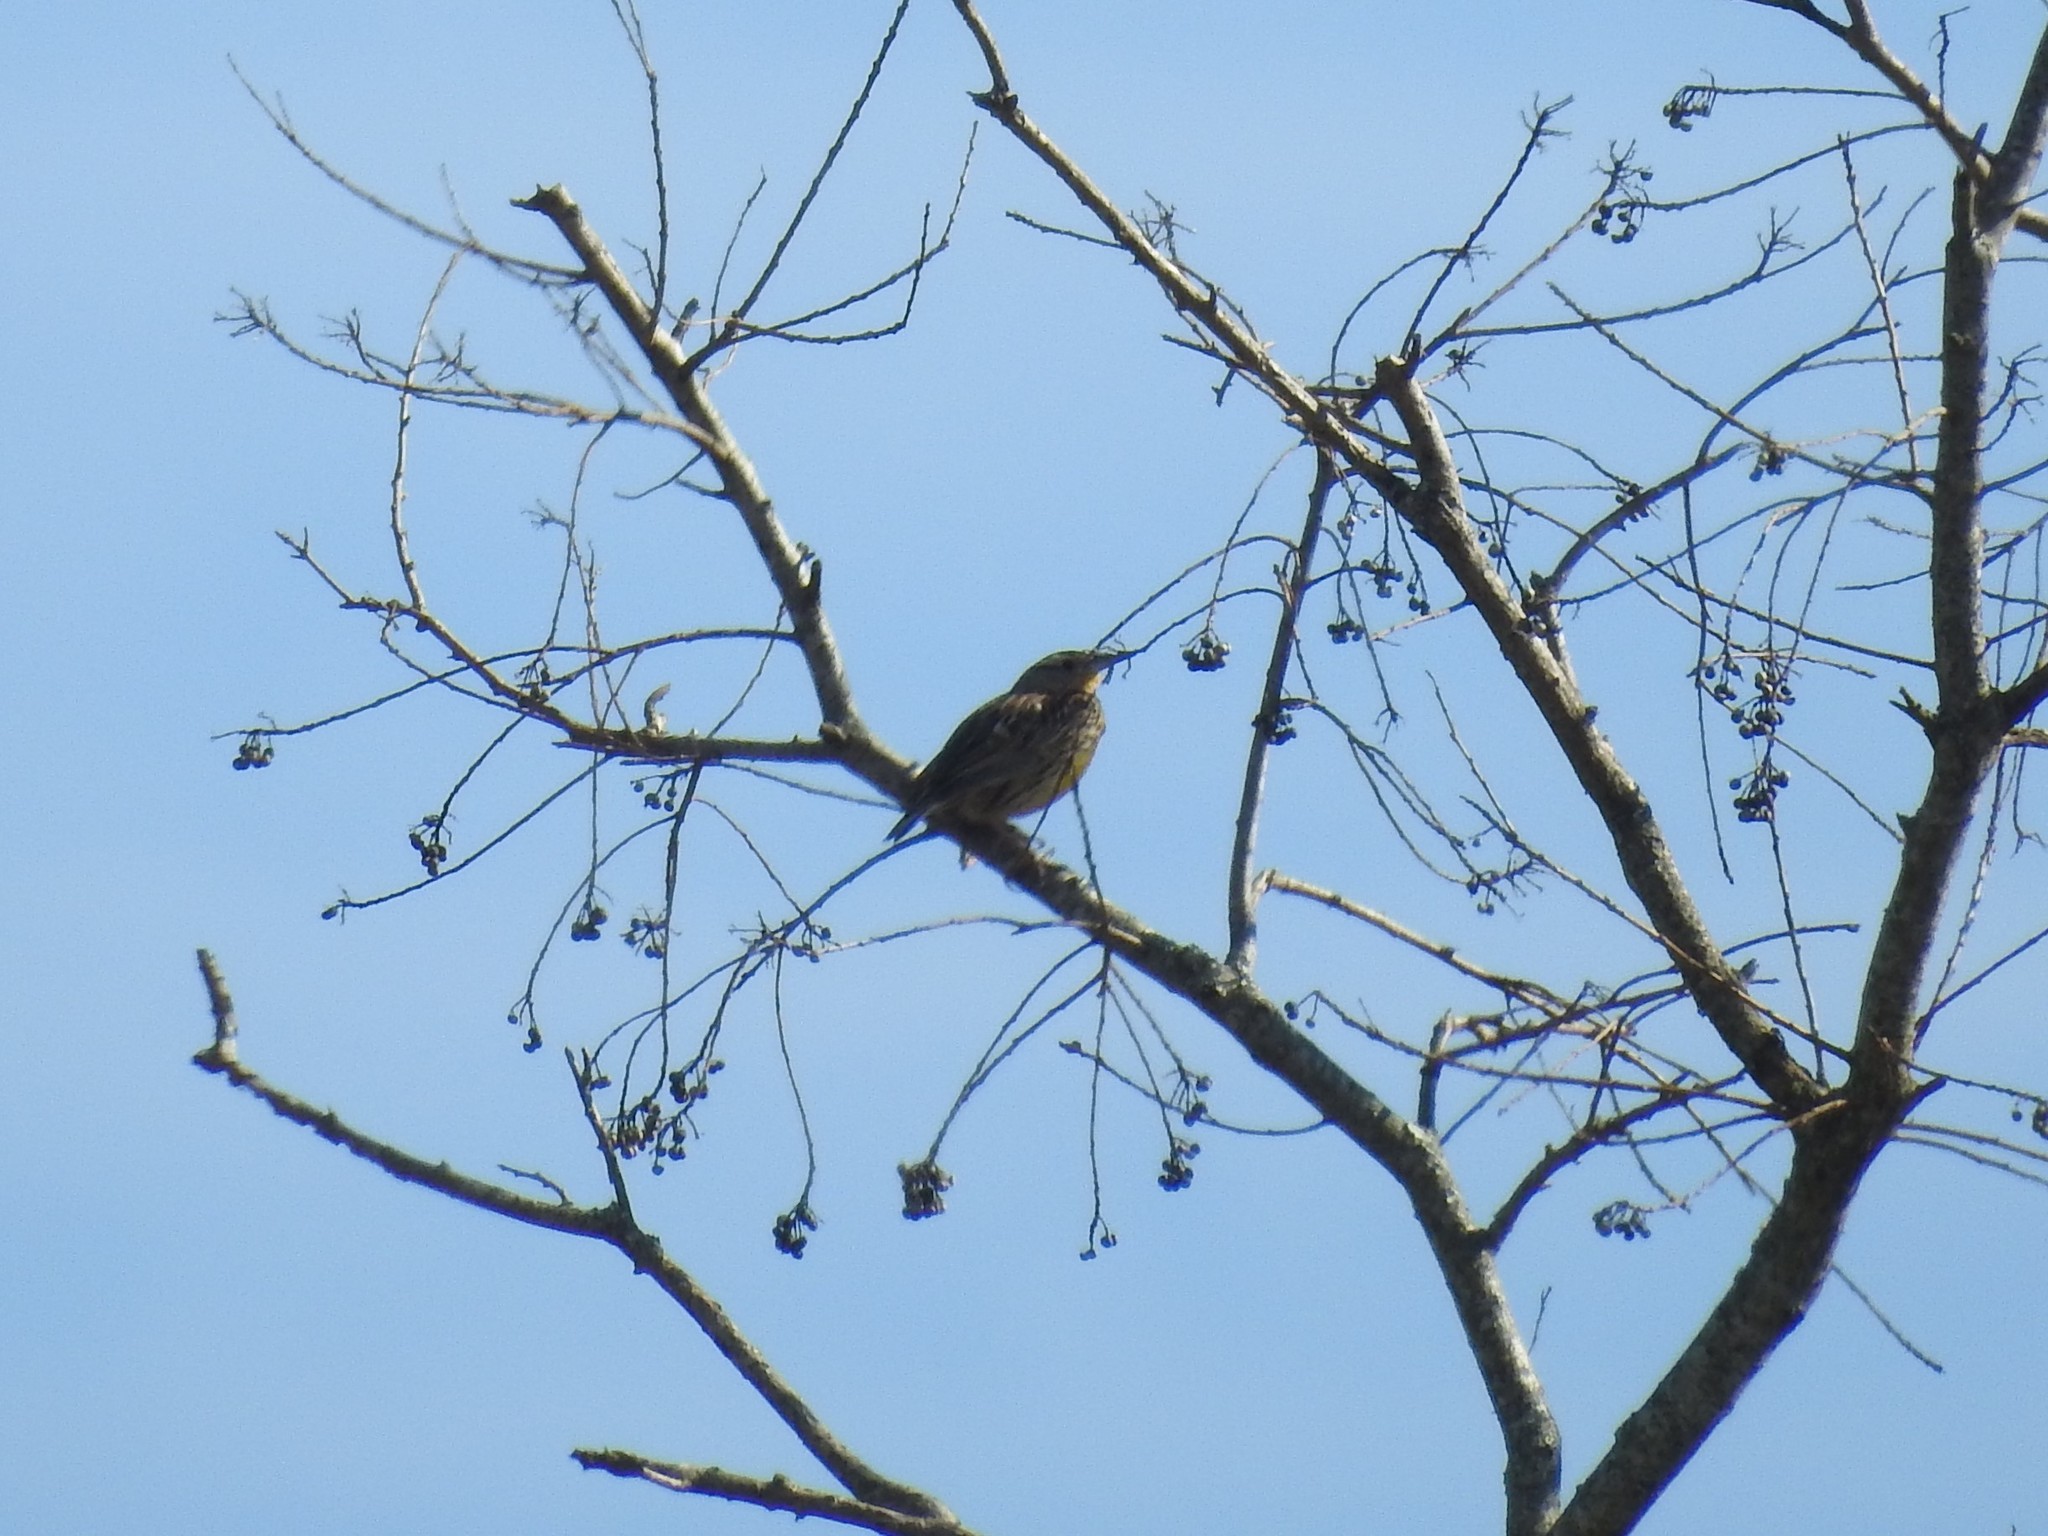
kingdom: Animalia
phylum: Chordata
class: Aves
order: Passeriformes
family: Icteridae
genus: Sturnella
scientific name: Sturnella magna
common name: Eastern meadowlark
